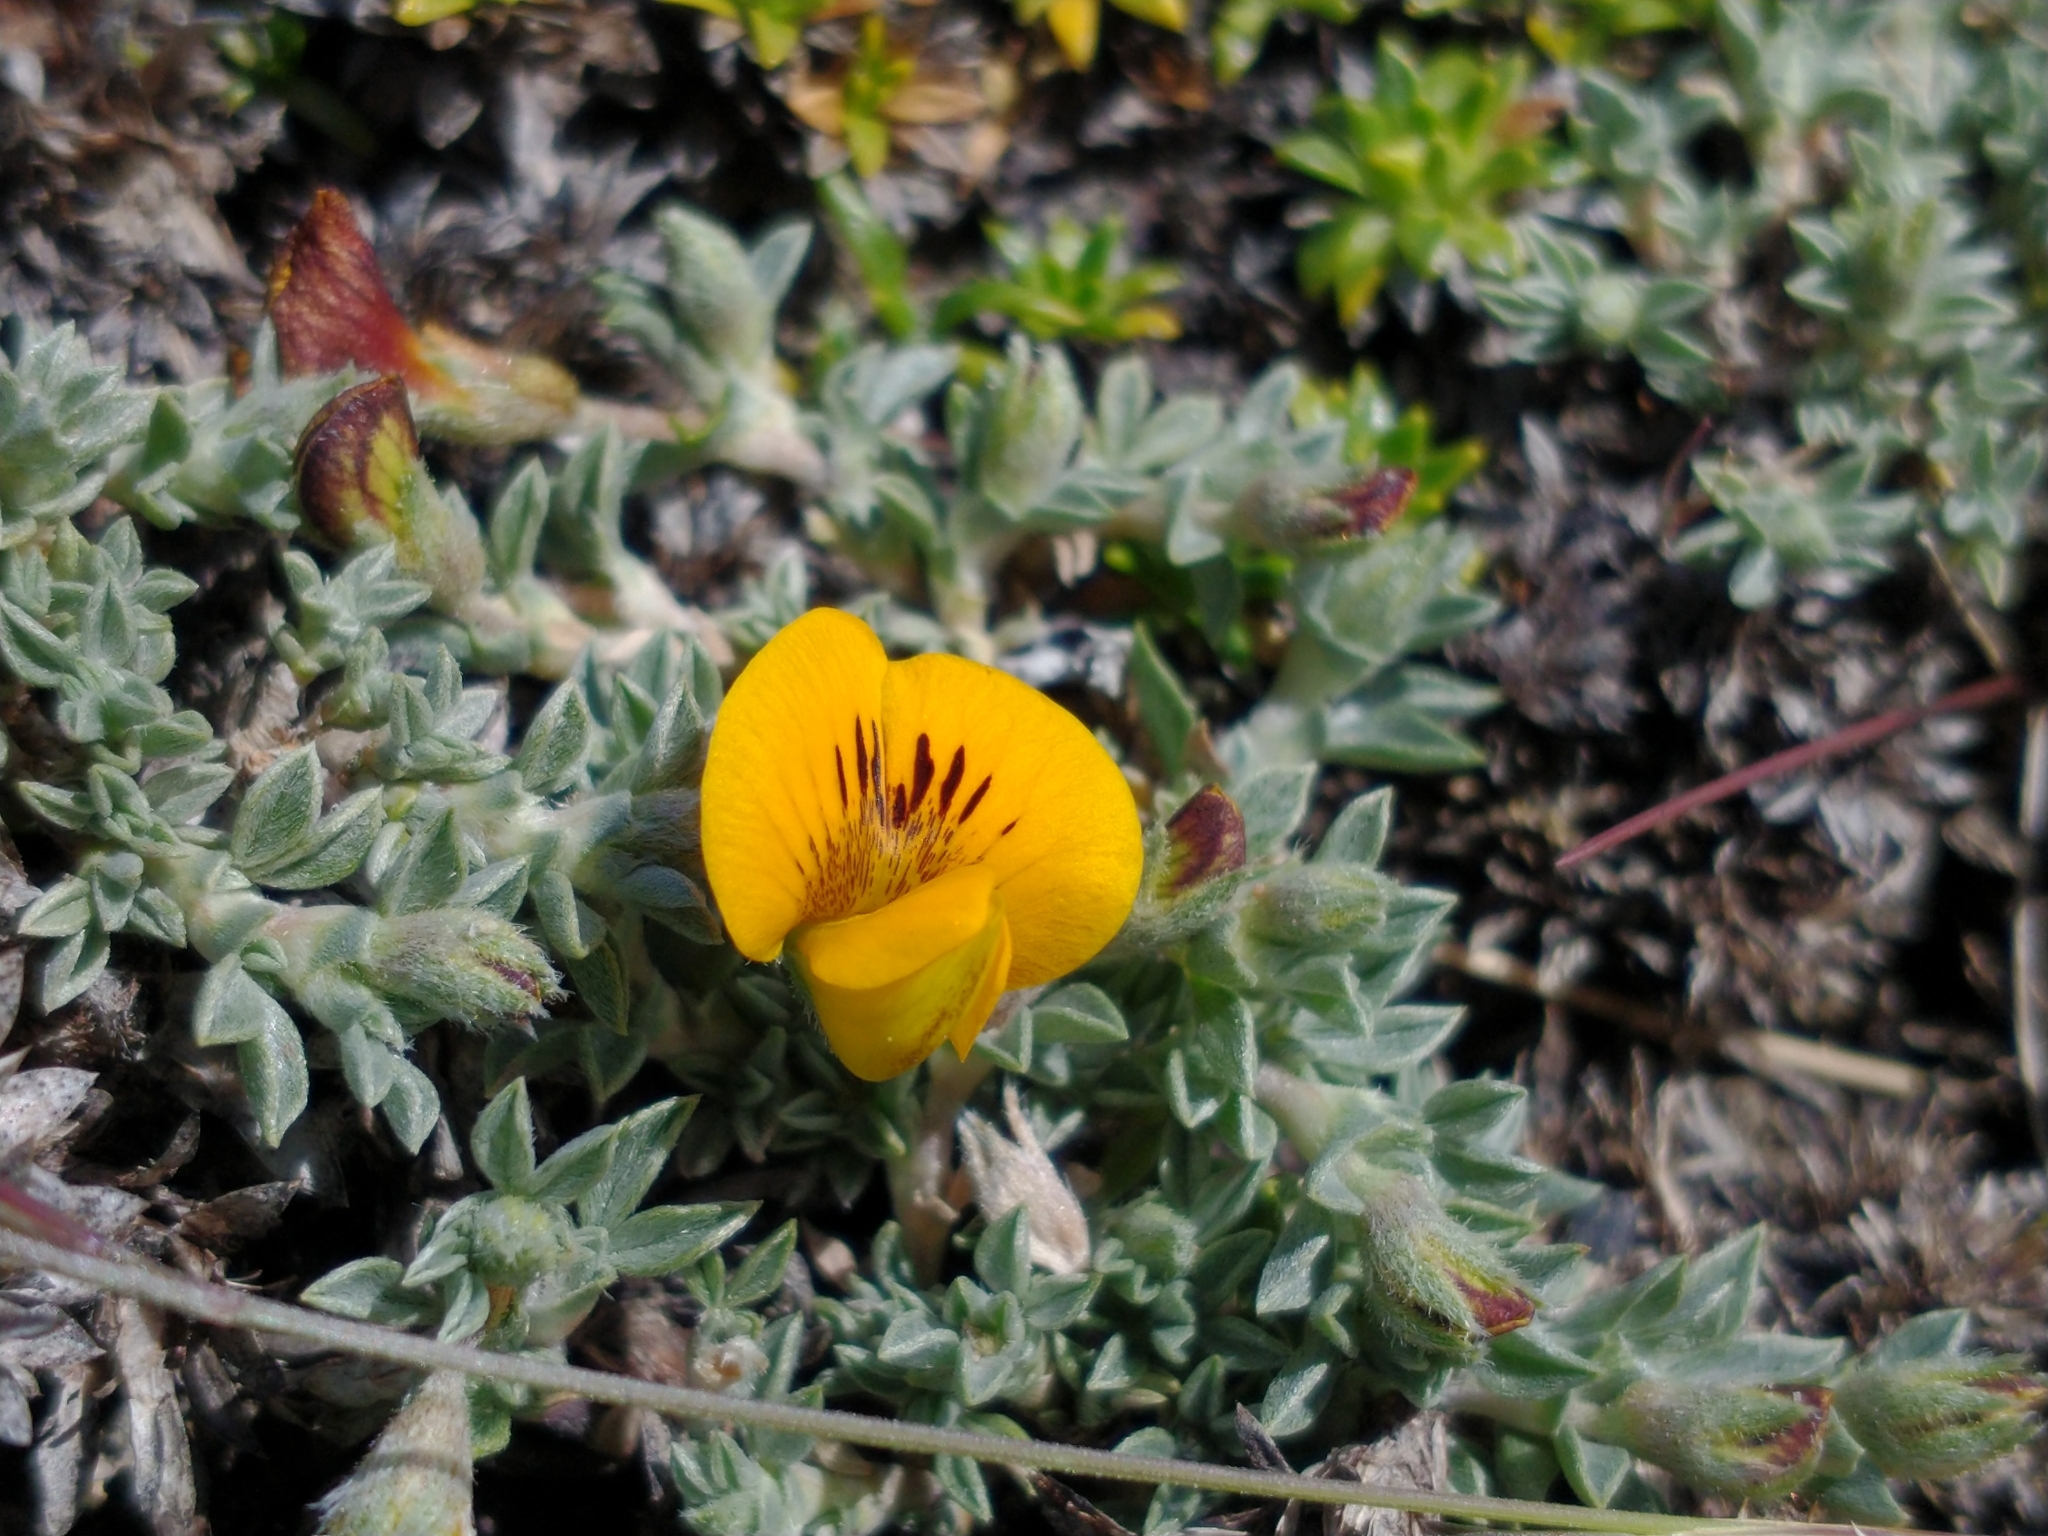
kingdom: Plantae
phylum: Tracheophyta
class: Magnoliopsida
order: Fabales
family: Fabaceae
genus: Adesmia
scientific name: Adesmia lotoides
